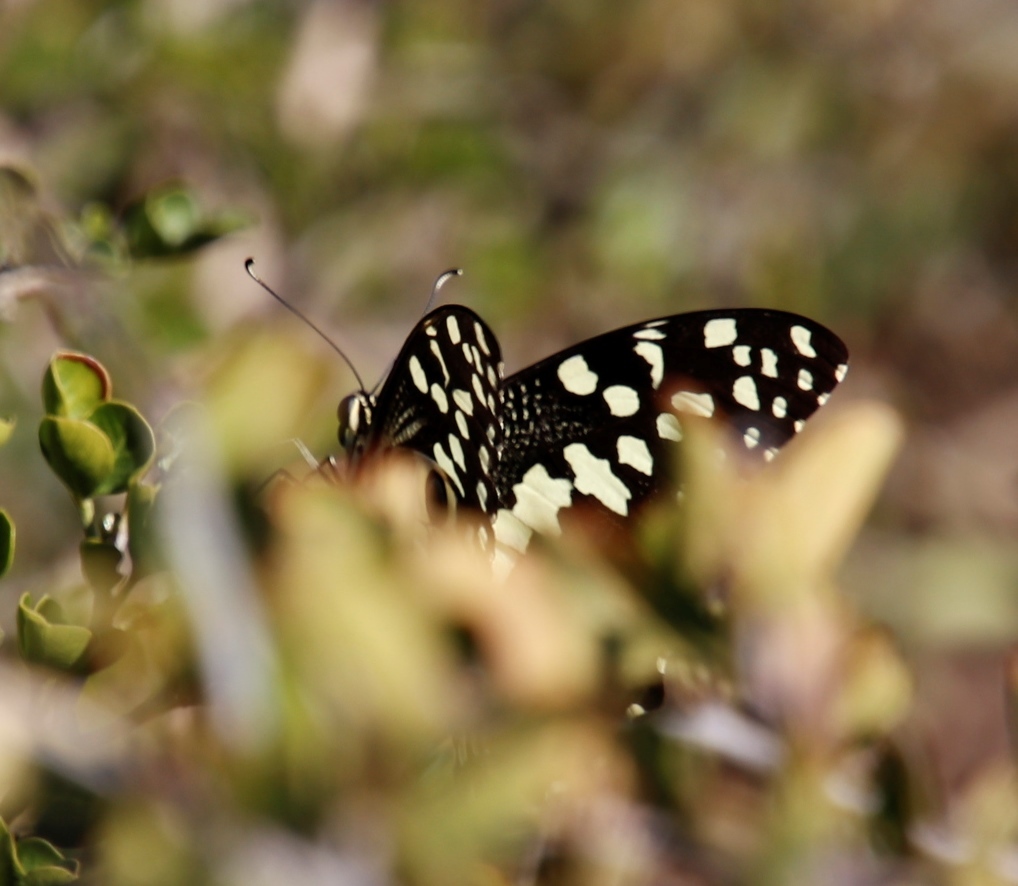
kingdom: Animalia
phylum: Arthropoda
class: Insecta
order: Lepidoptera
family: Papilionidae
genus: Papilio
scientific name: Papilio demodocus
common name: Christmas butterfly
